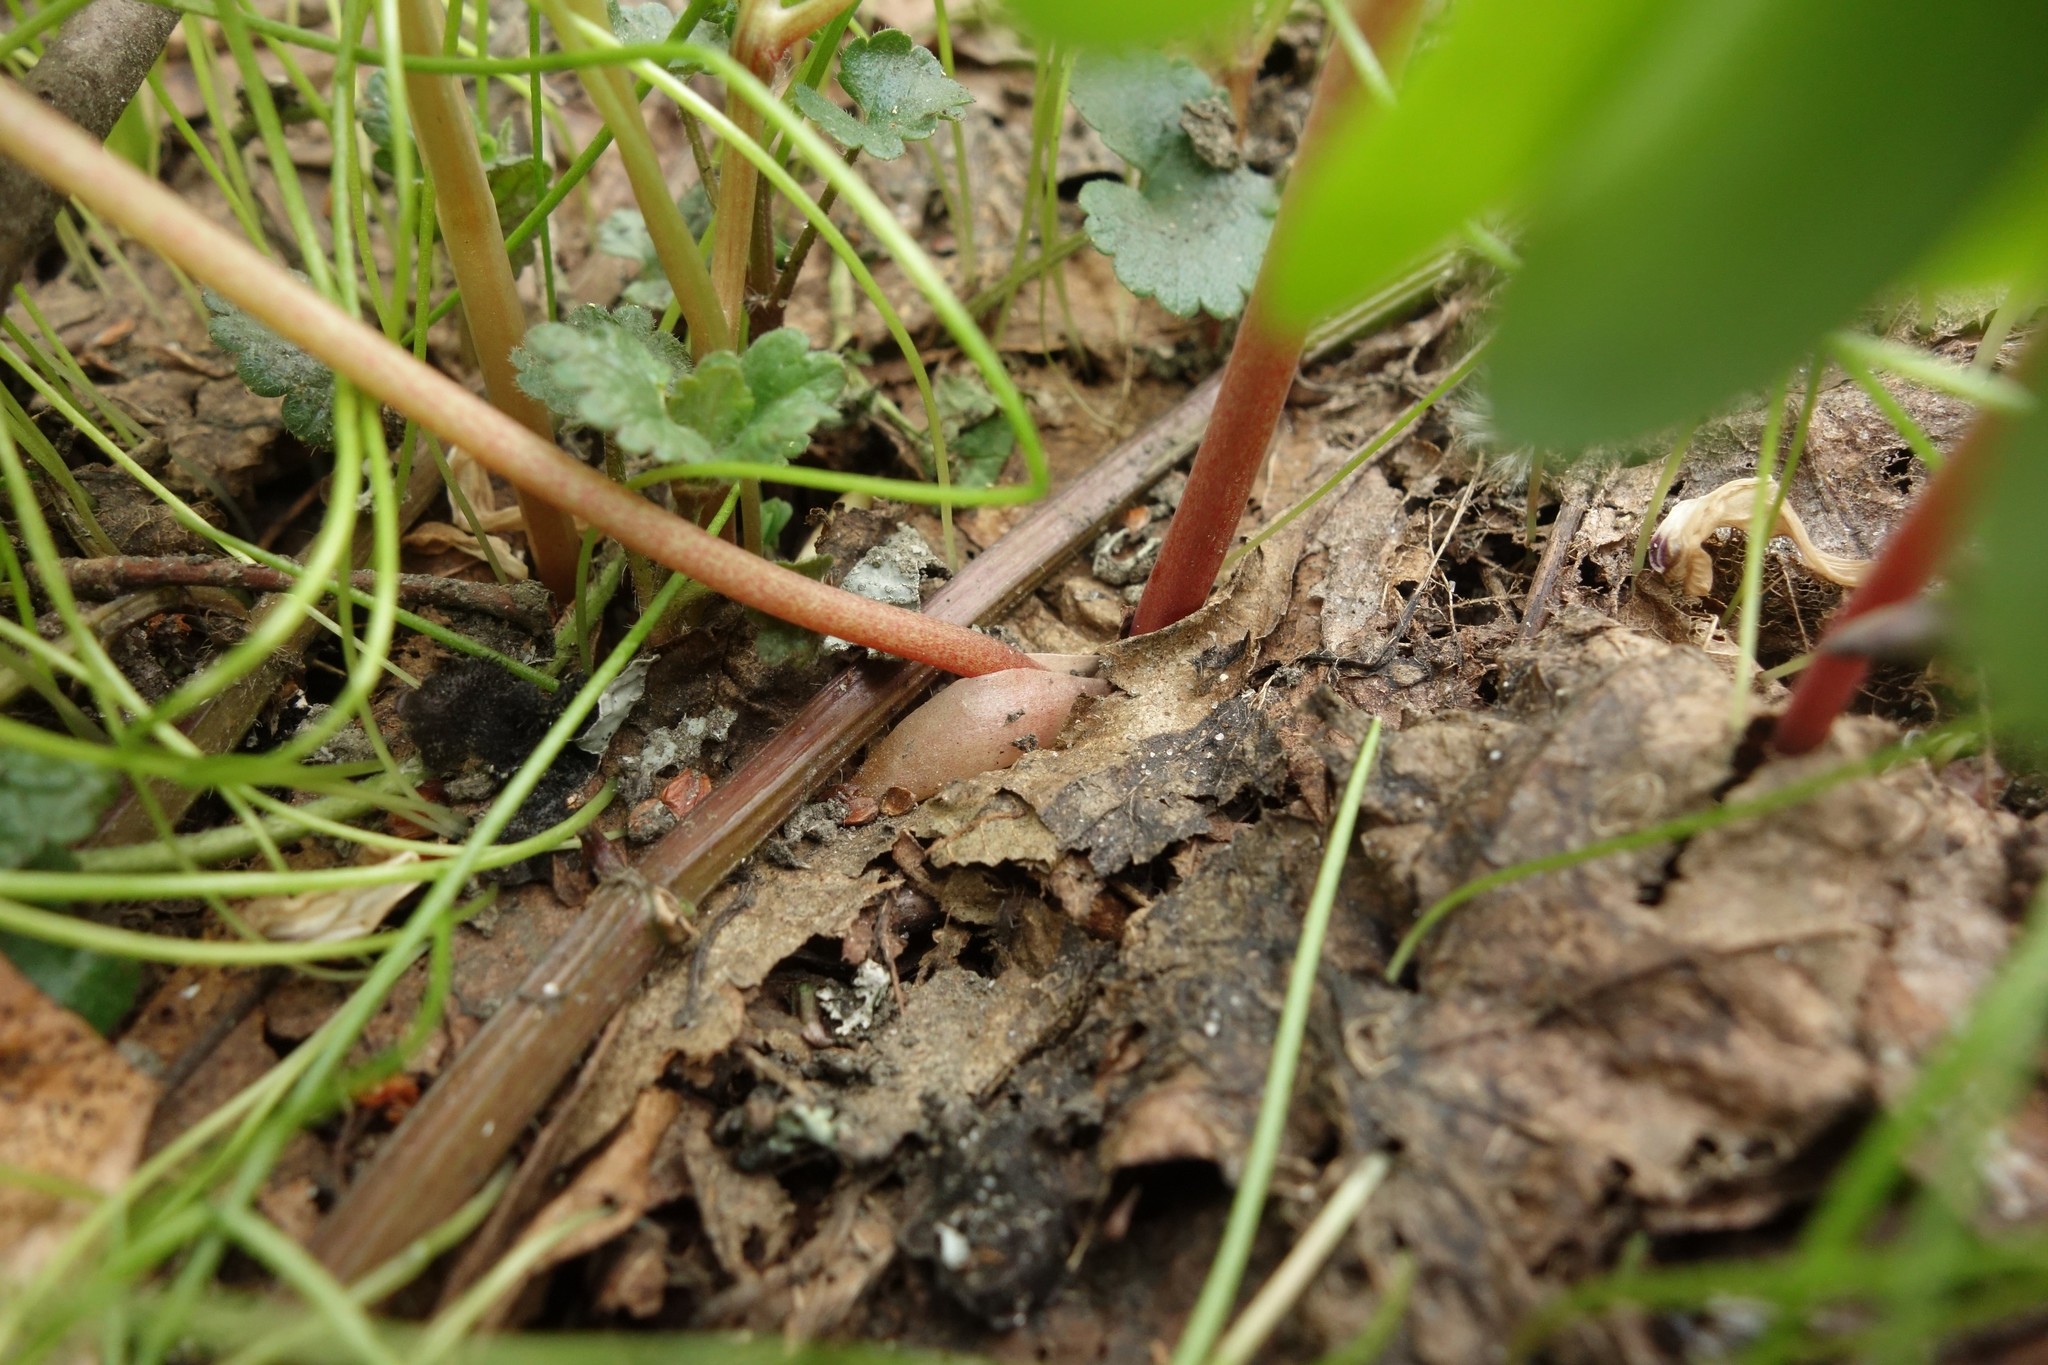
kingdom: Plantae
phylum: Tracheophyta
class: Magnoliopsida
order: Ranunculales
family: Papaveraceae
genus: Corydalis
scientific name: Corydalis intermedia
